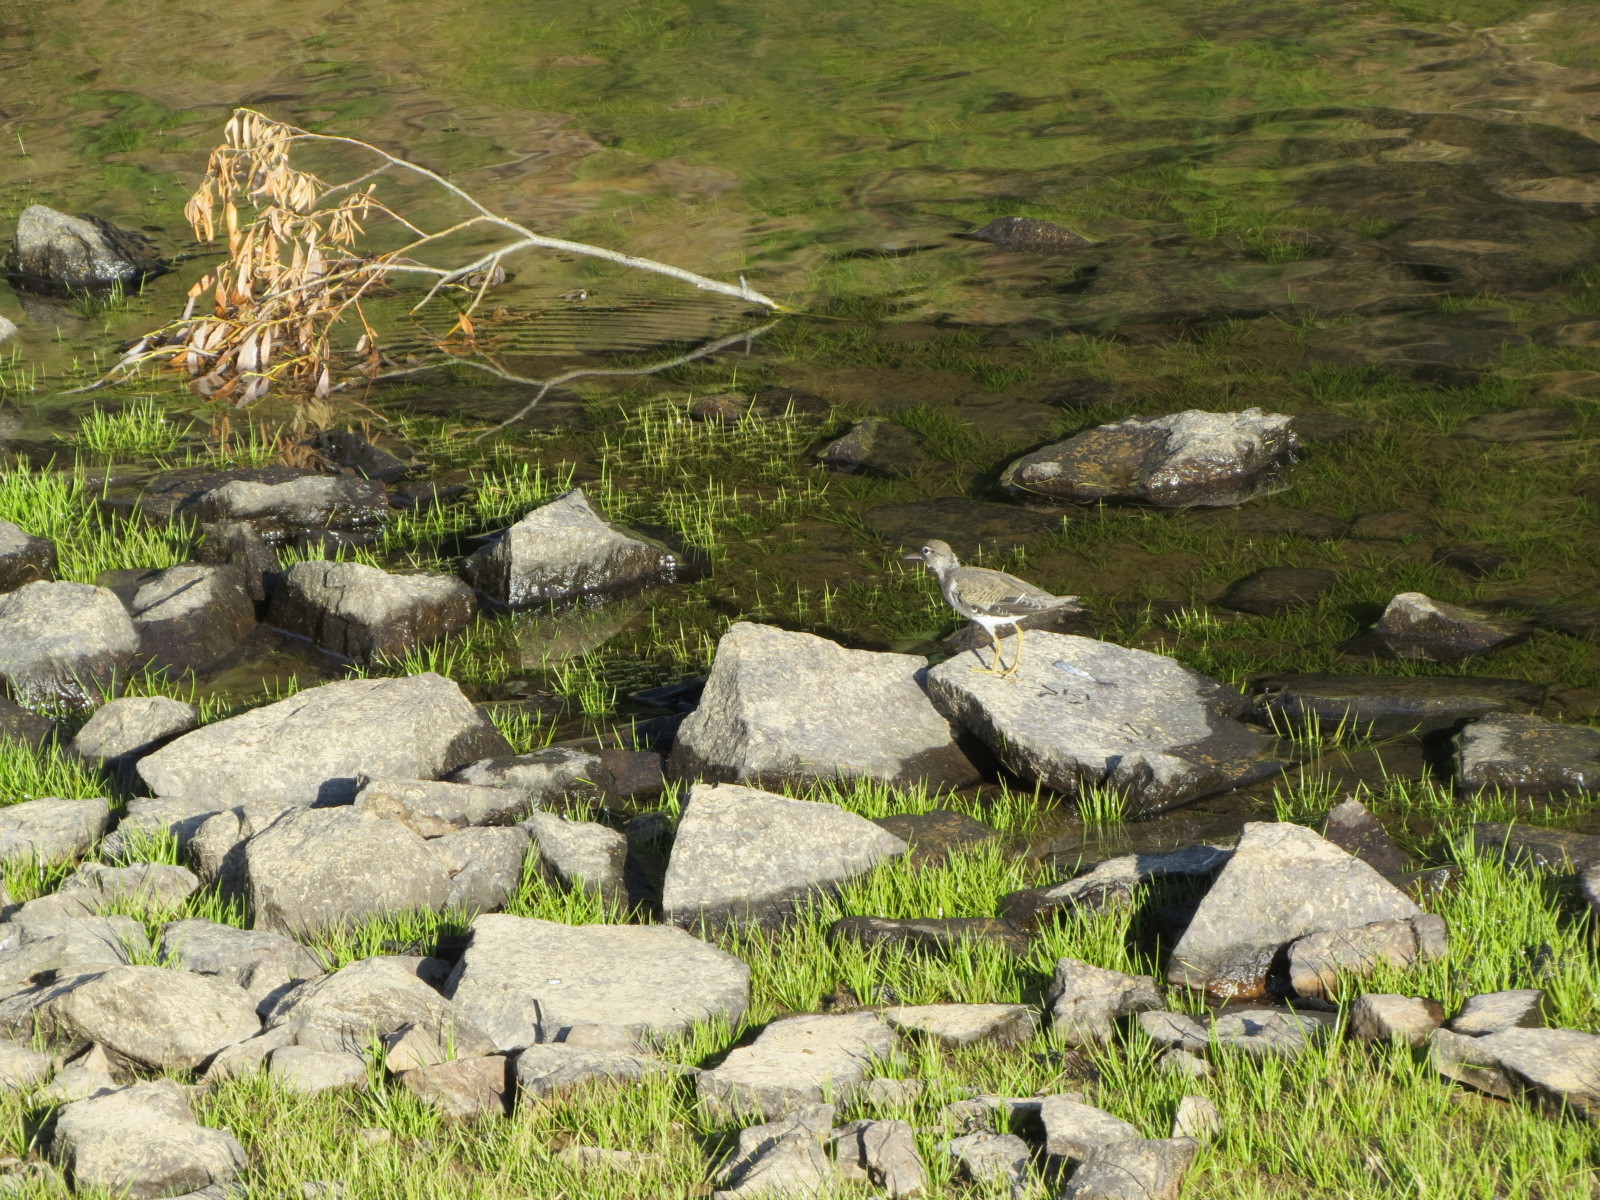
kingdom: Animalia
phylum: Chordata
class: Aves
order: Charadriiformes
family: Scolopacidae
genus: Actitis
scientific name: Actitis macularius
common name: Spotted sandpiper
